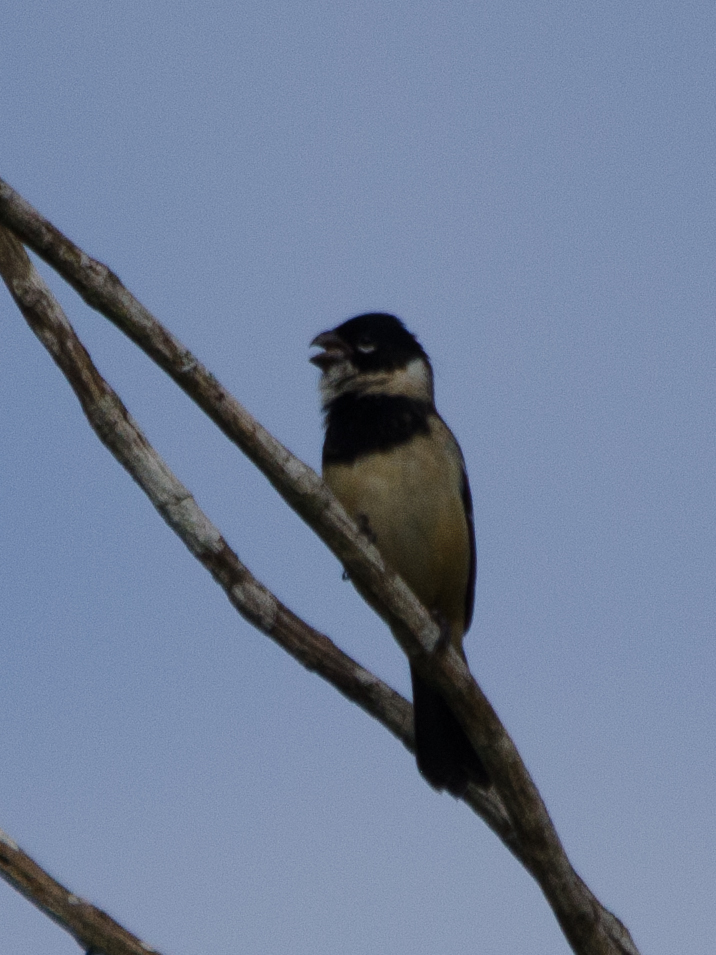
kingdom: Animalia
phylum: Chordata
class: Aves
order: Passeriformes
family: Thraupidae
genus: Sporophila
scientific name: Sporophila morelleti
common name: Morelet's seedeater
